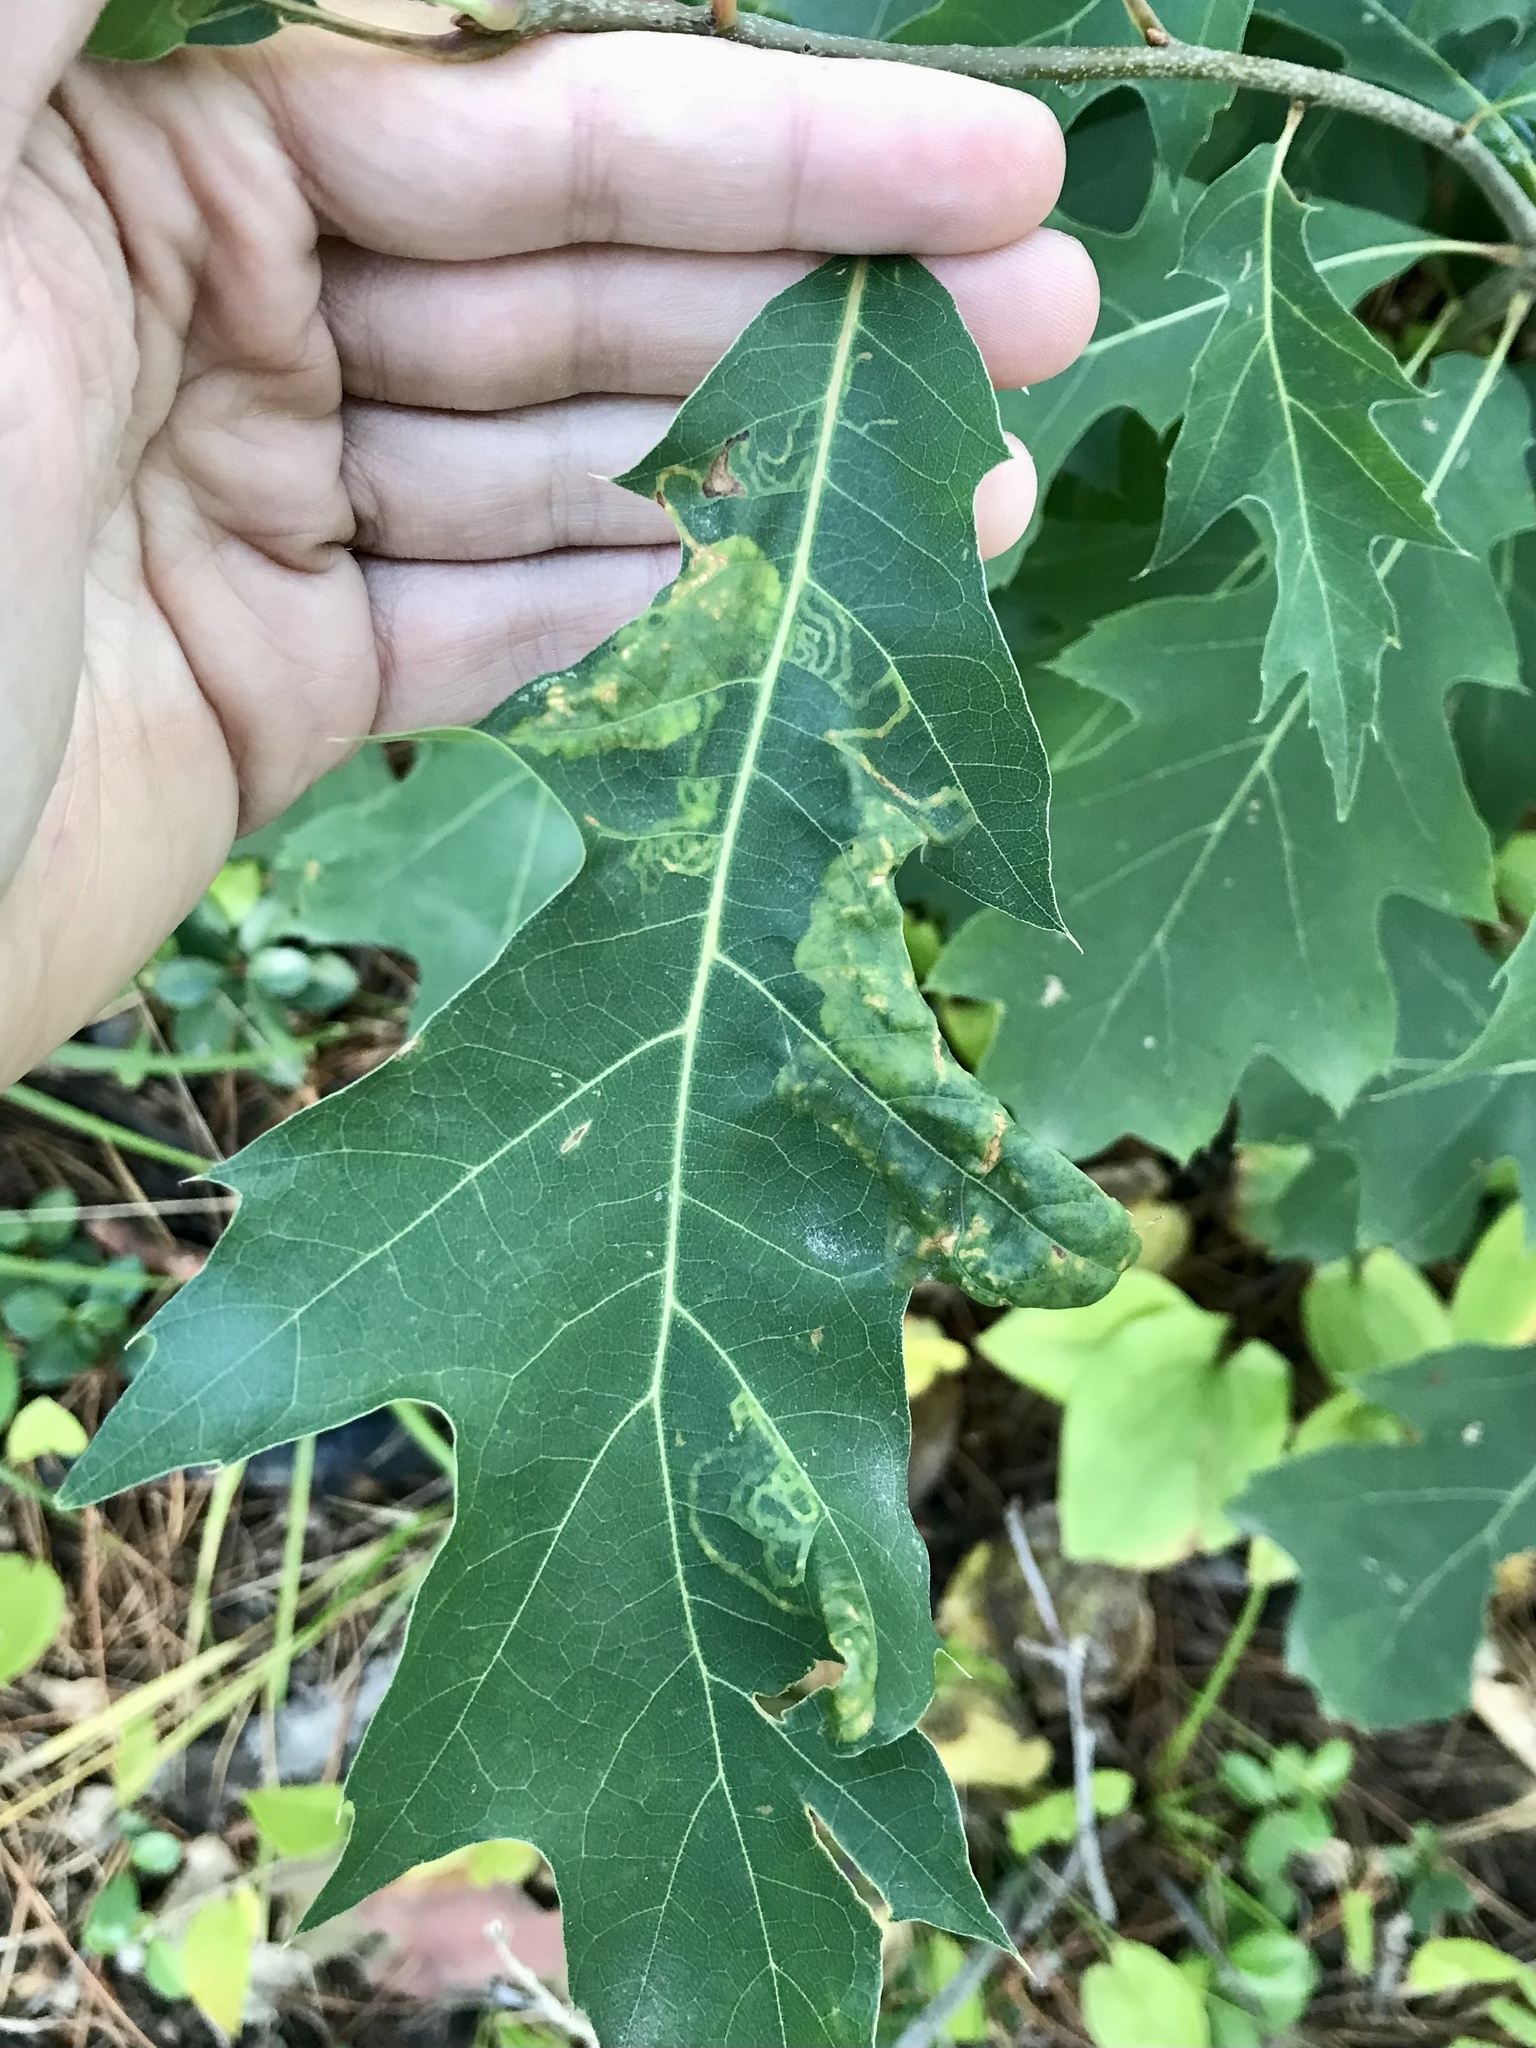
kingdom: Animalia
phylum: Arthropoda
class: Insecta
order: Lepidoptera
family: Gracillariidae
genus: Acrocercops
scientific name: Acrocercops albinatella
